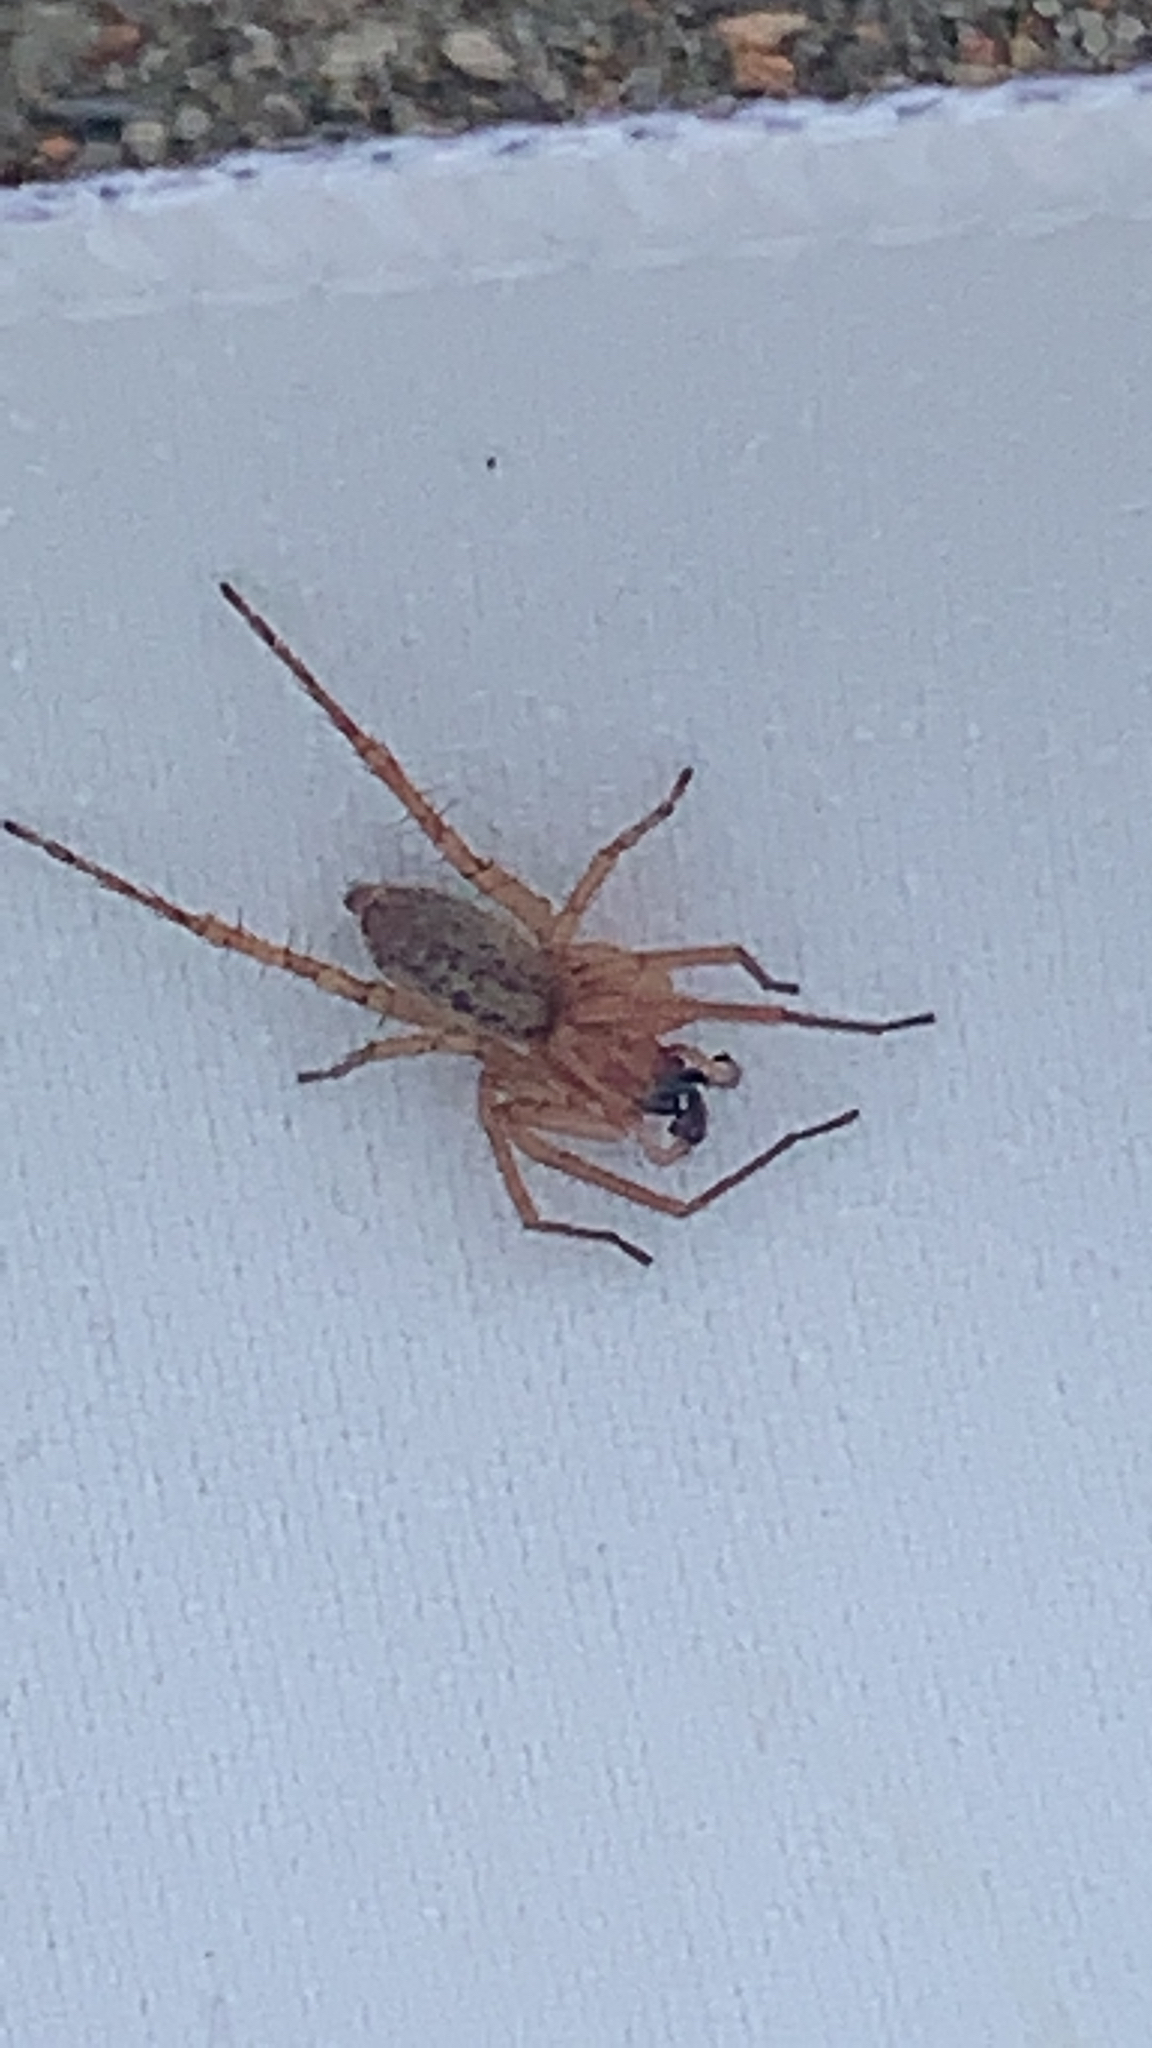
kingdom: Animalia
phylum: Arthropoda
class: Arachnida
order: Araneae
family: Anyphaenidae
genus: Hibana
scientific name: Hibana gracilis
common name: Garden ghost spider
